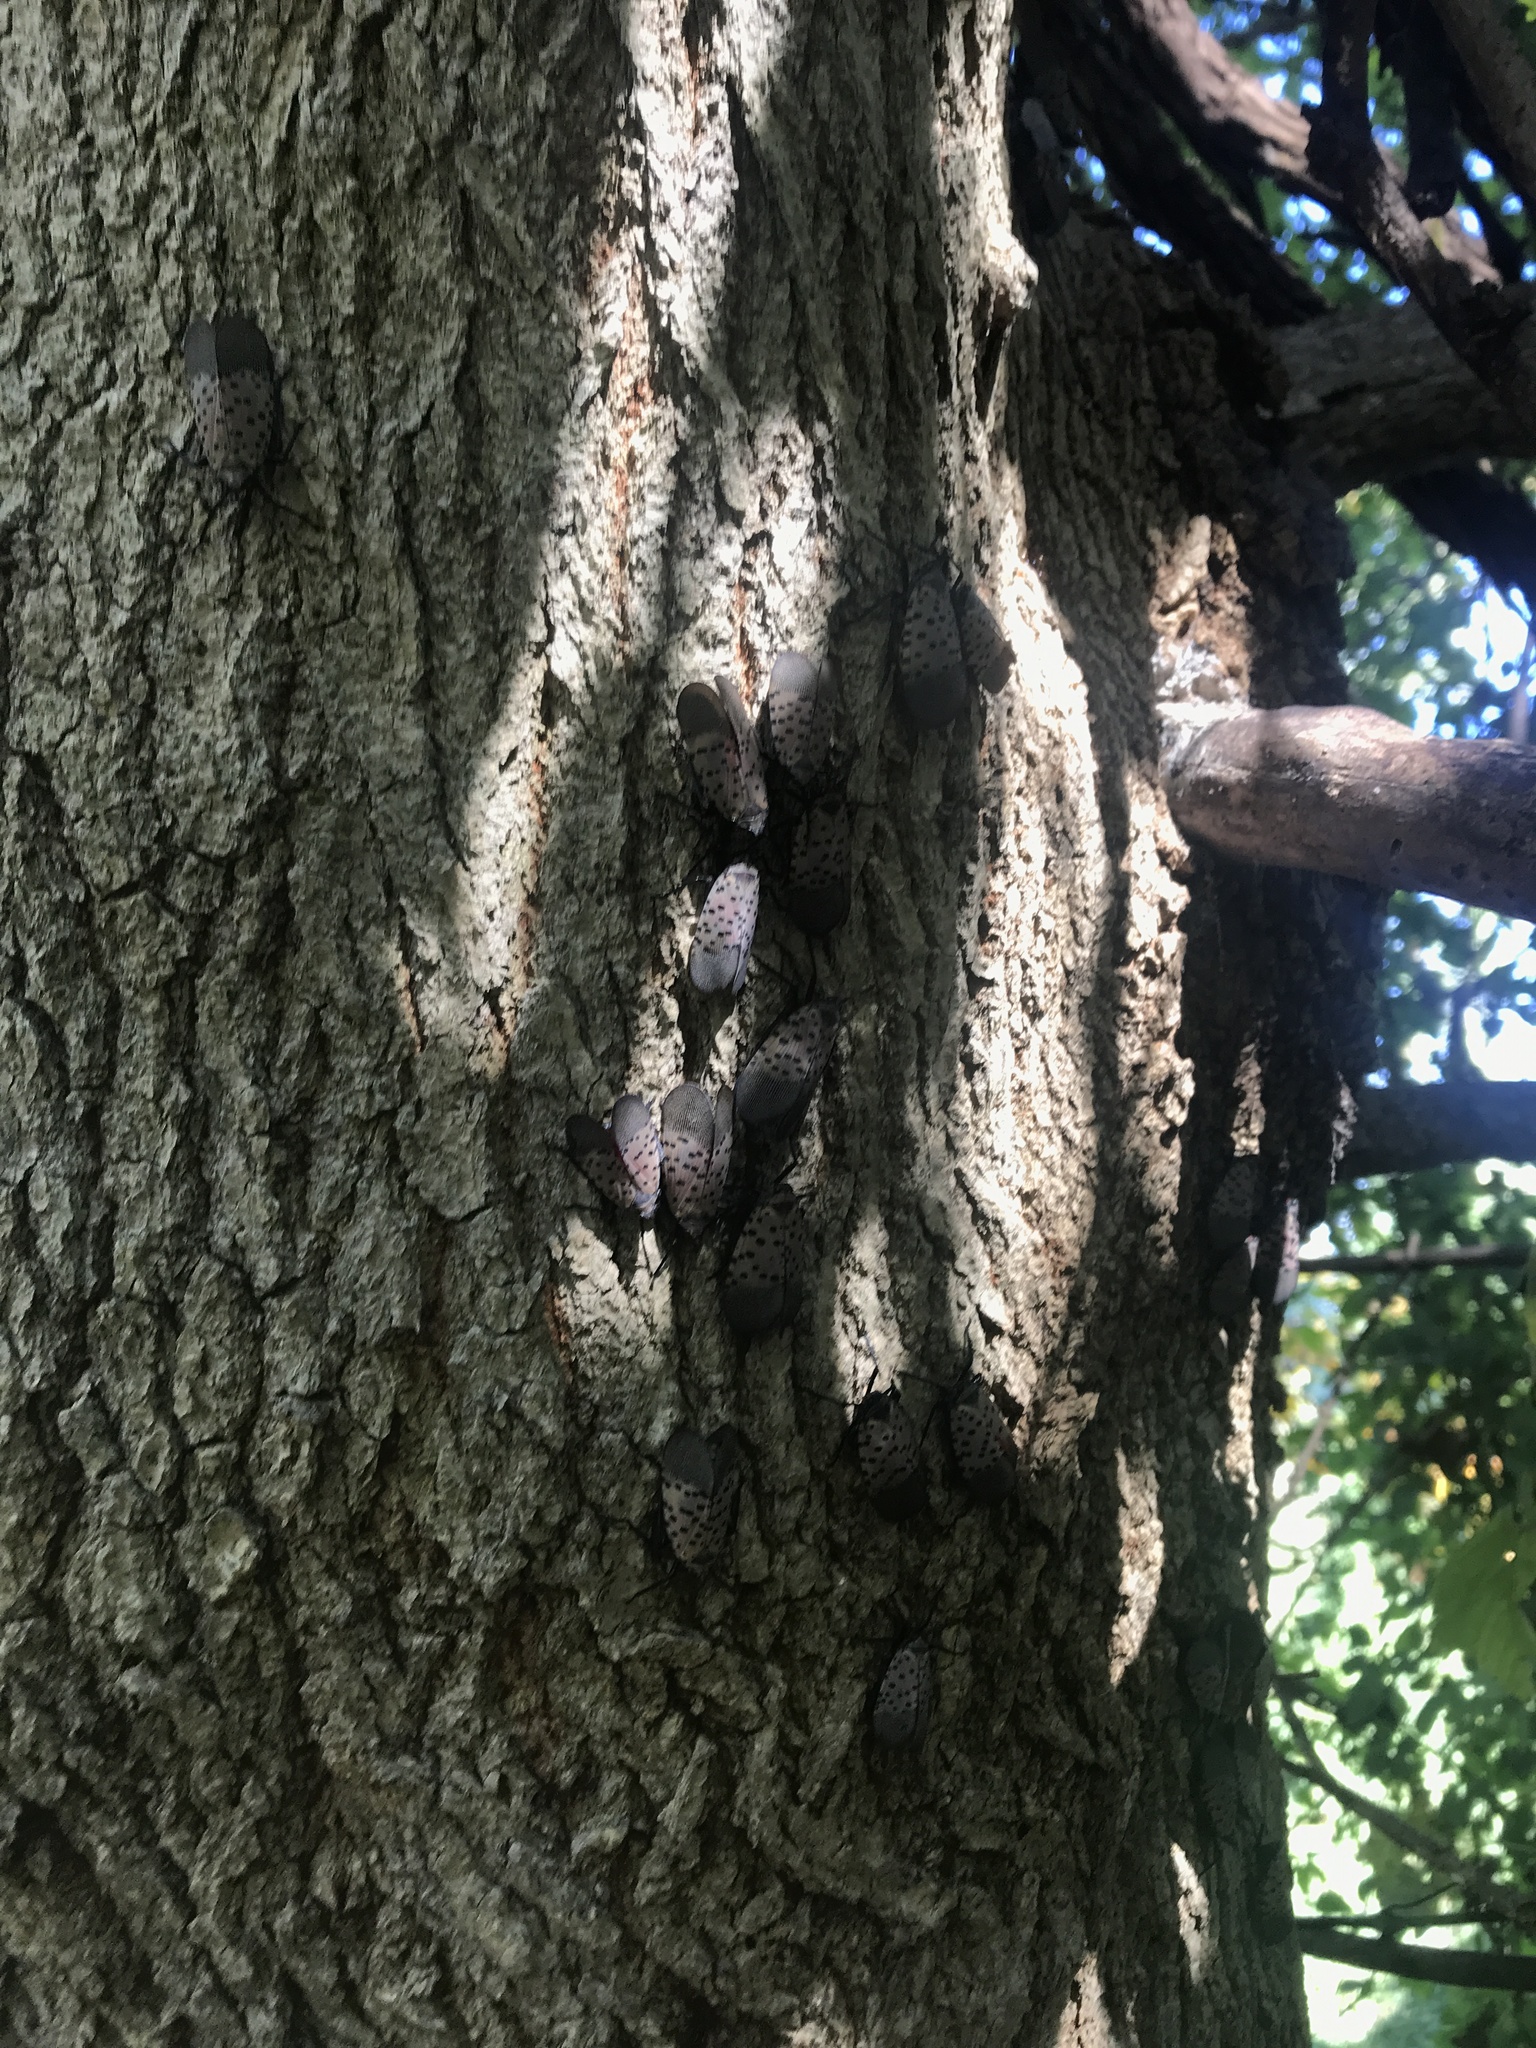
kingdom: Animalia
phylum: Arthropoda
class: Insecta
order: Hemiptera
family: Fulgoridae
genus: Lycorma
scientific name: Lycorma delicatula
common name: Spotted lanternfly
